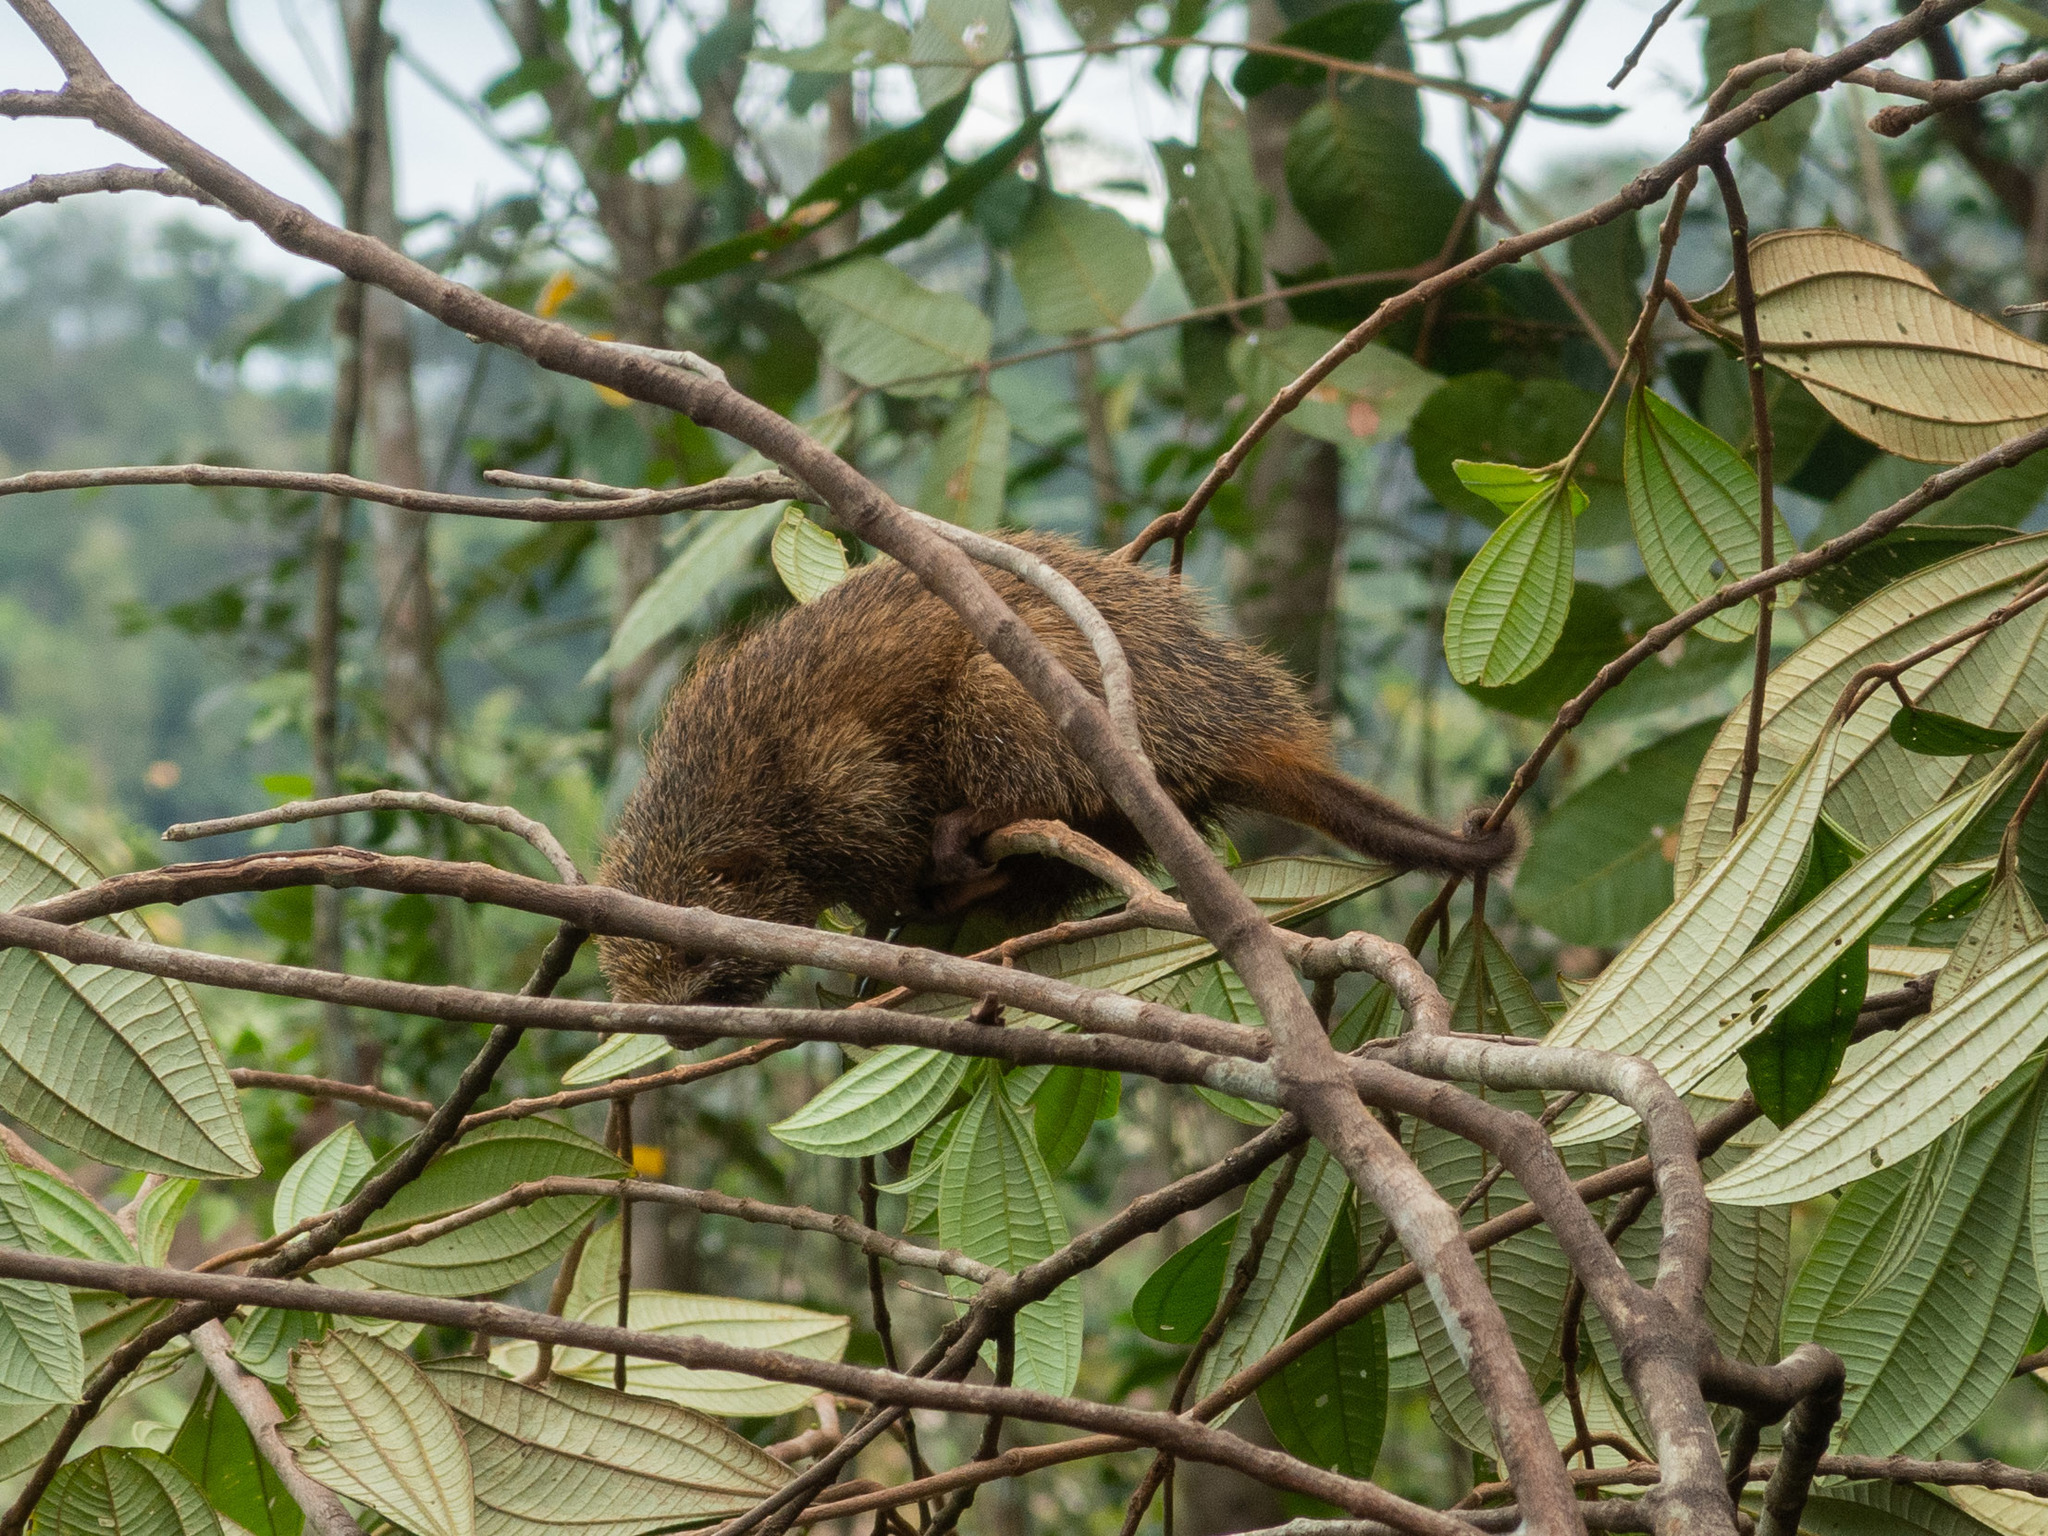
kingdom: Animalia
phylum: Chordata
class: Mammalia
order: Rodentia
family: Erethizontidae
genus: Chaetomys
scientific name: Chaetomys subspinosus
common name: Bristle-spined rat
